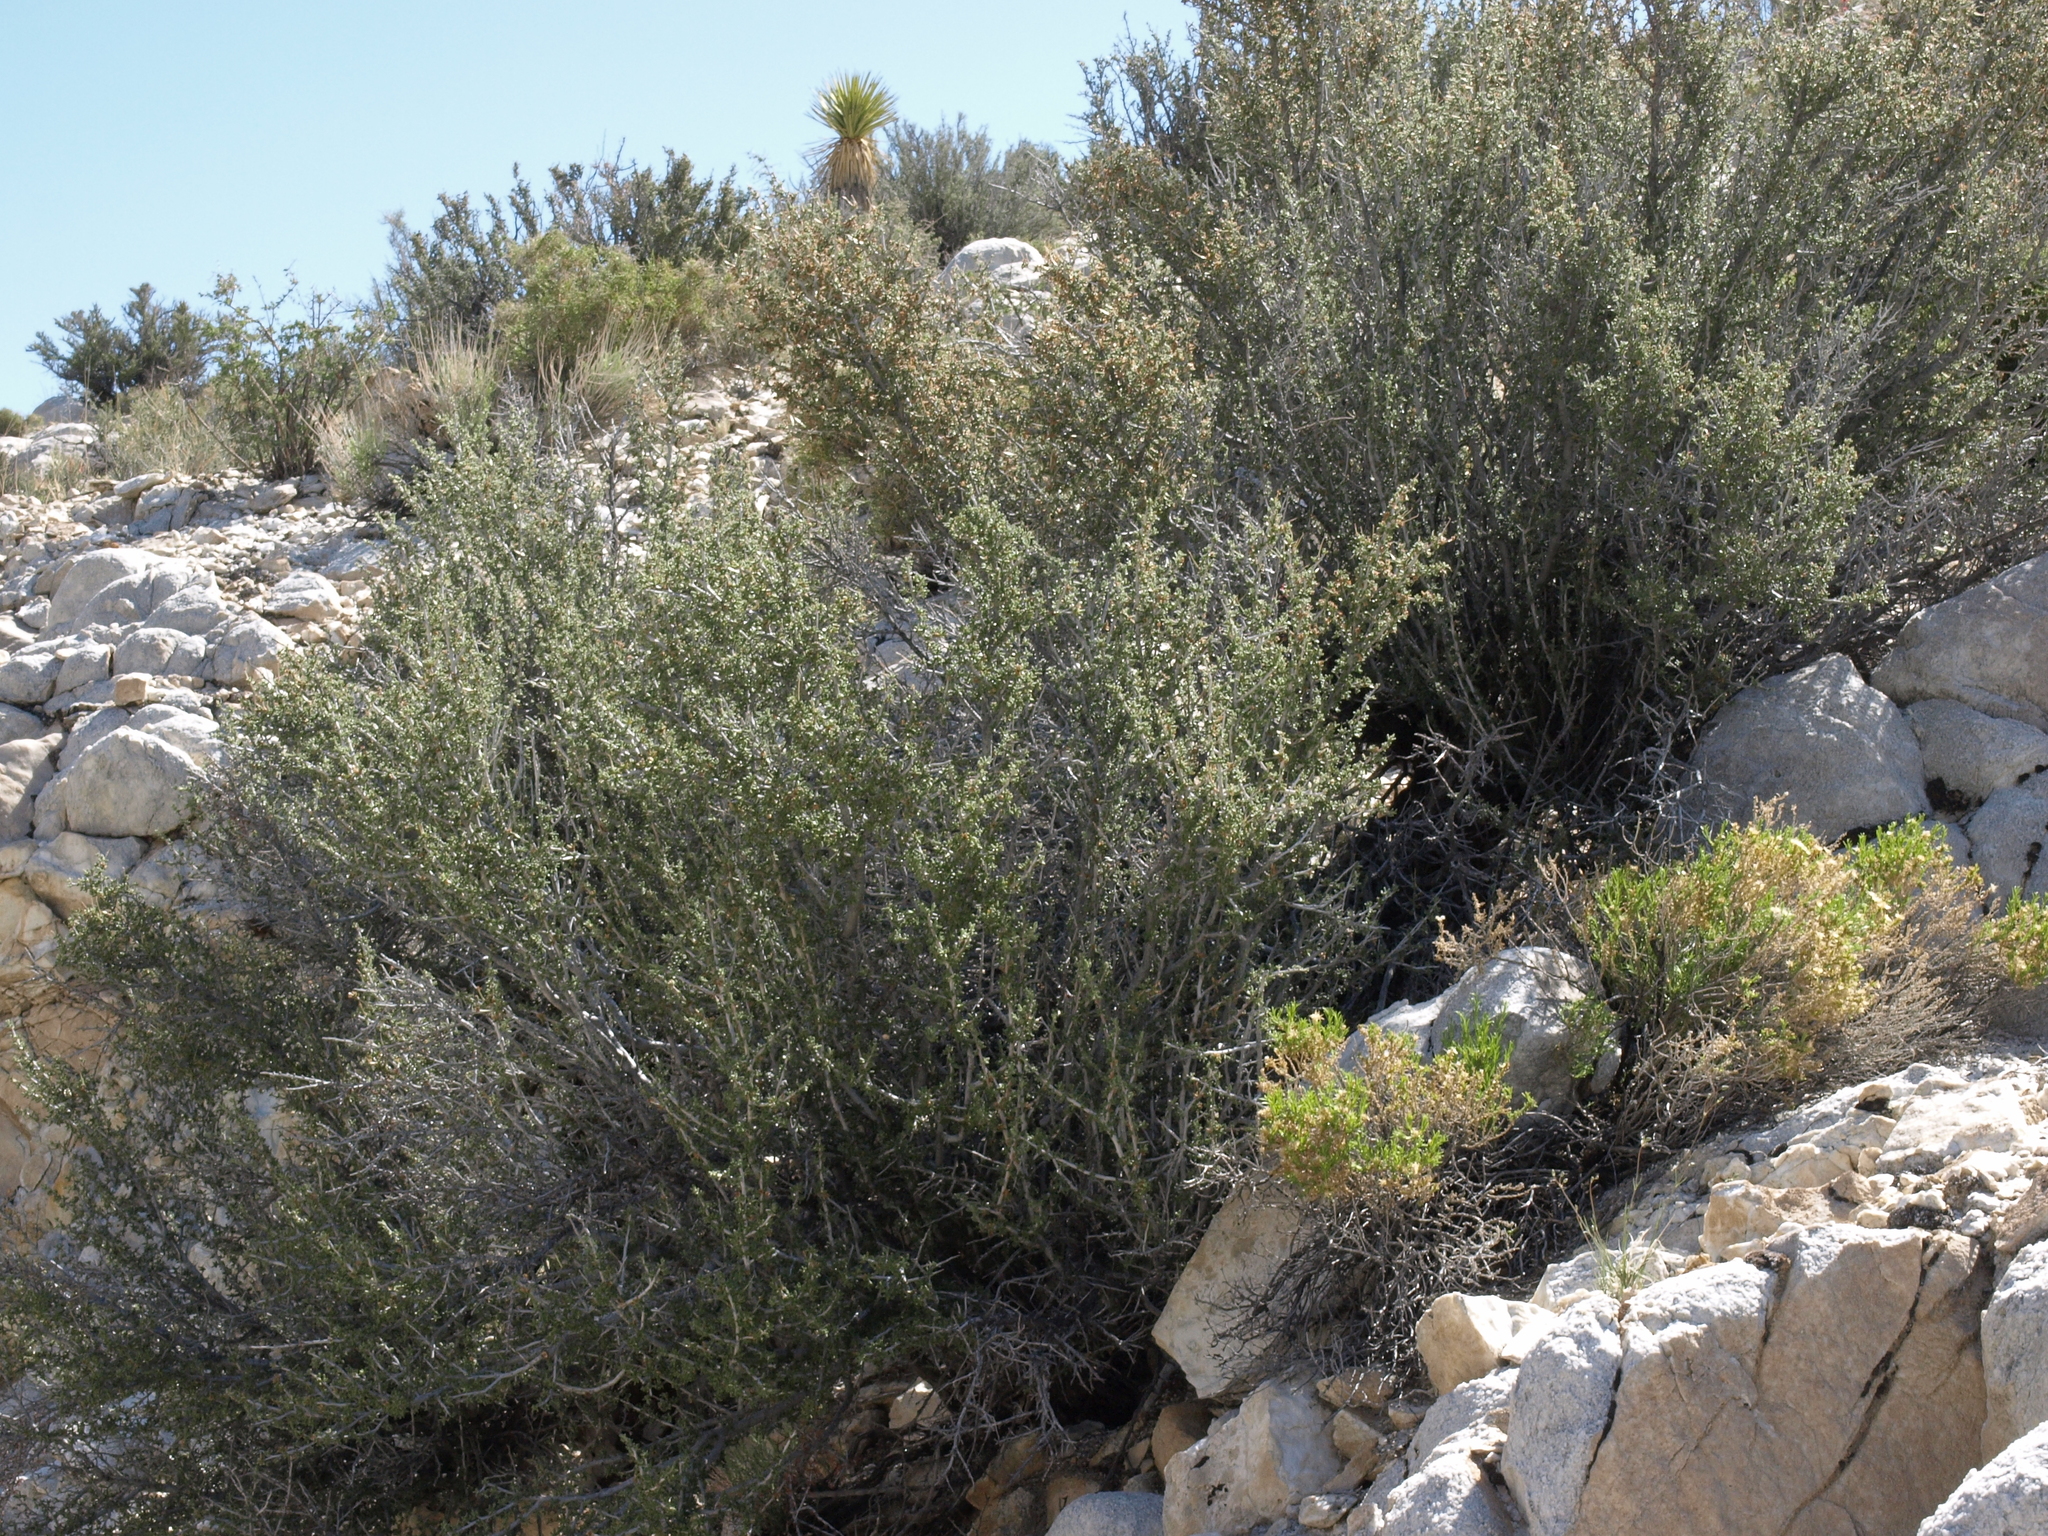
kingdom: Plantae
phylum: Tracheophyta
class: Magnoliopsida
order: Rosales
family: Rosaceae
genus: Cercocarpus
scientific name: Cercocarpus intricatus
